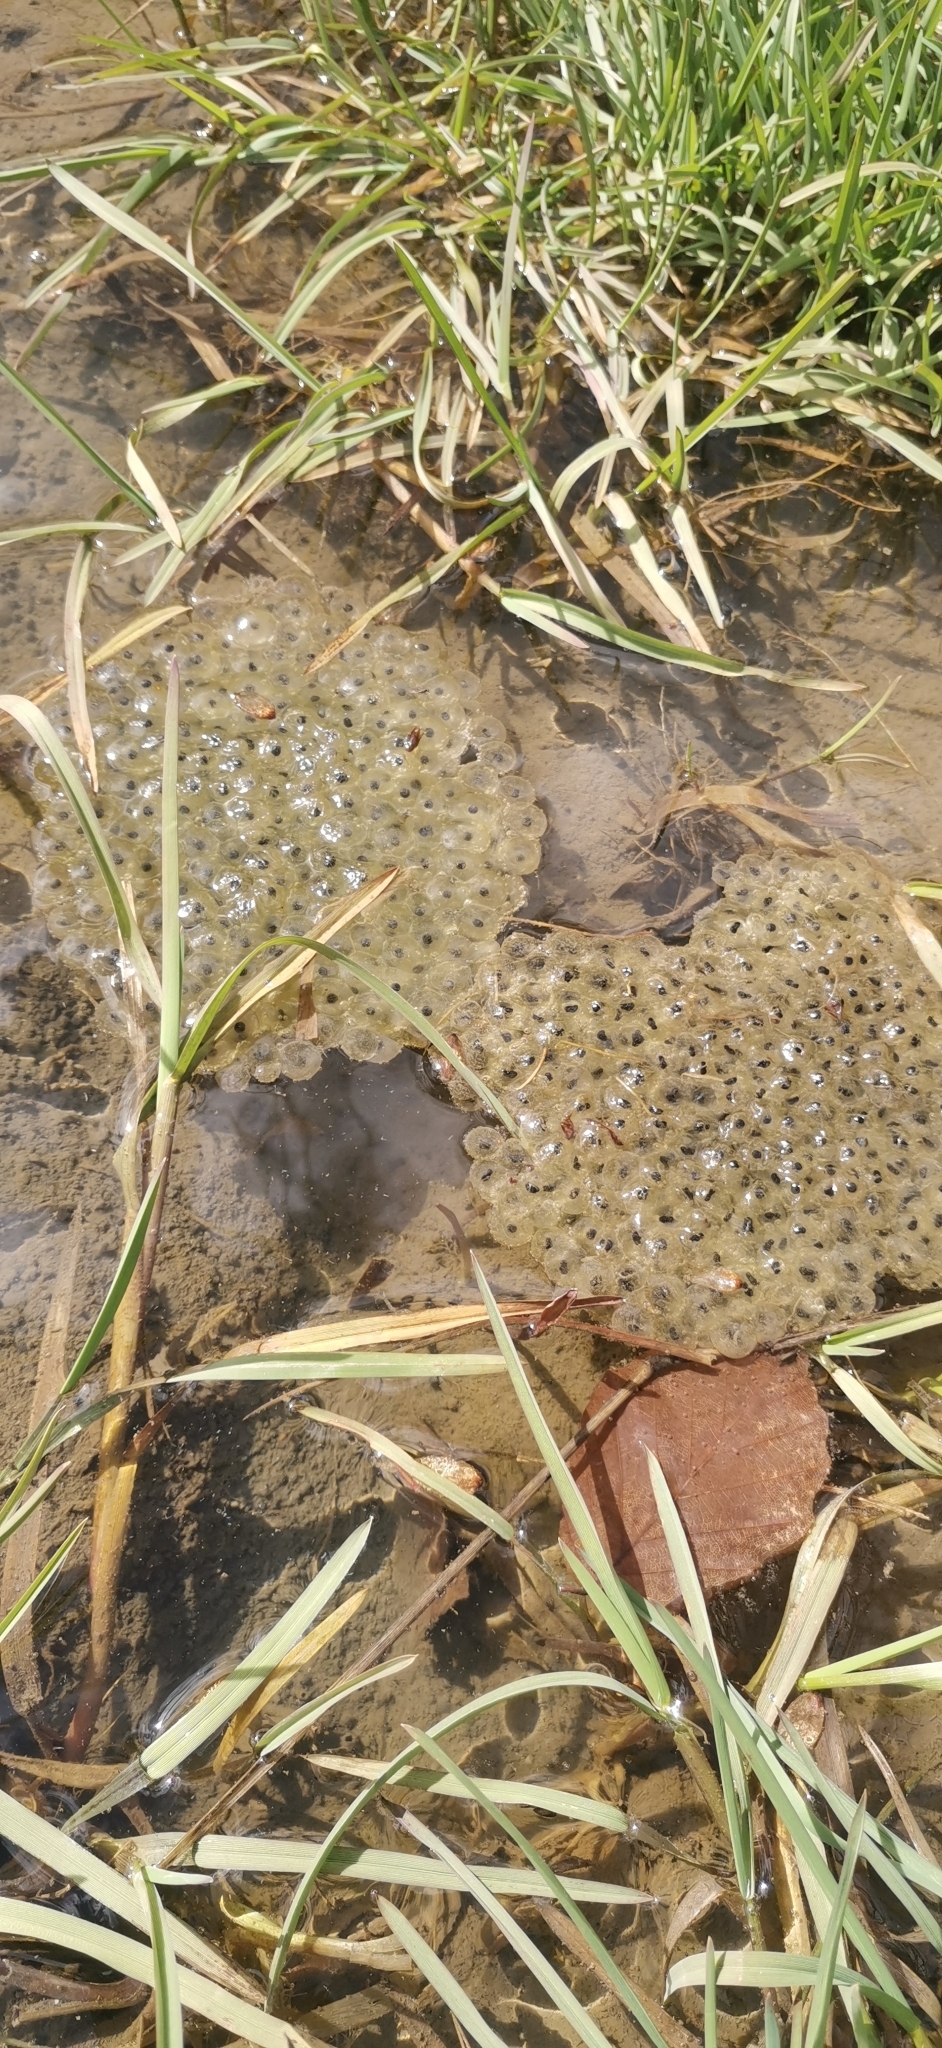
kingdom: Animalia
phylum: Chordata
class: Amphibia
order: Anura
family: Ranidae
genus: Rana
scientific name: Rana temporaria
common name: Common frog
